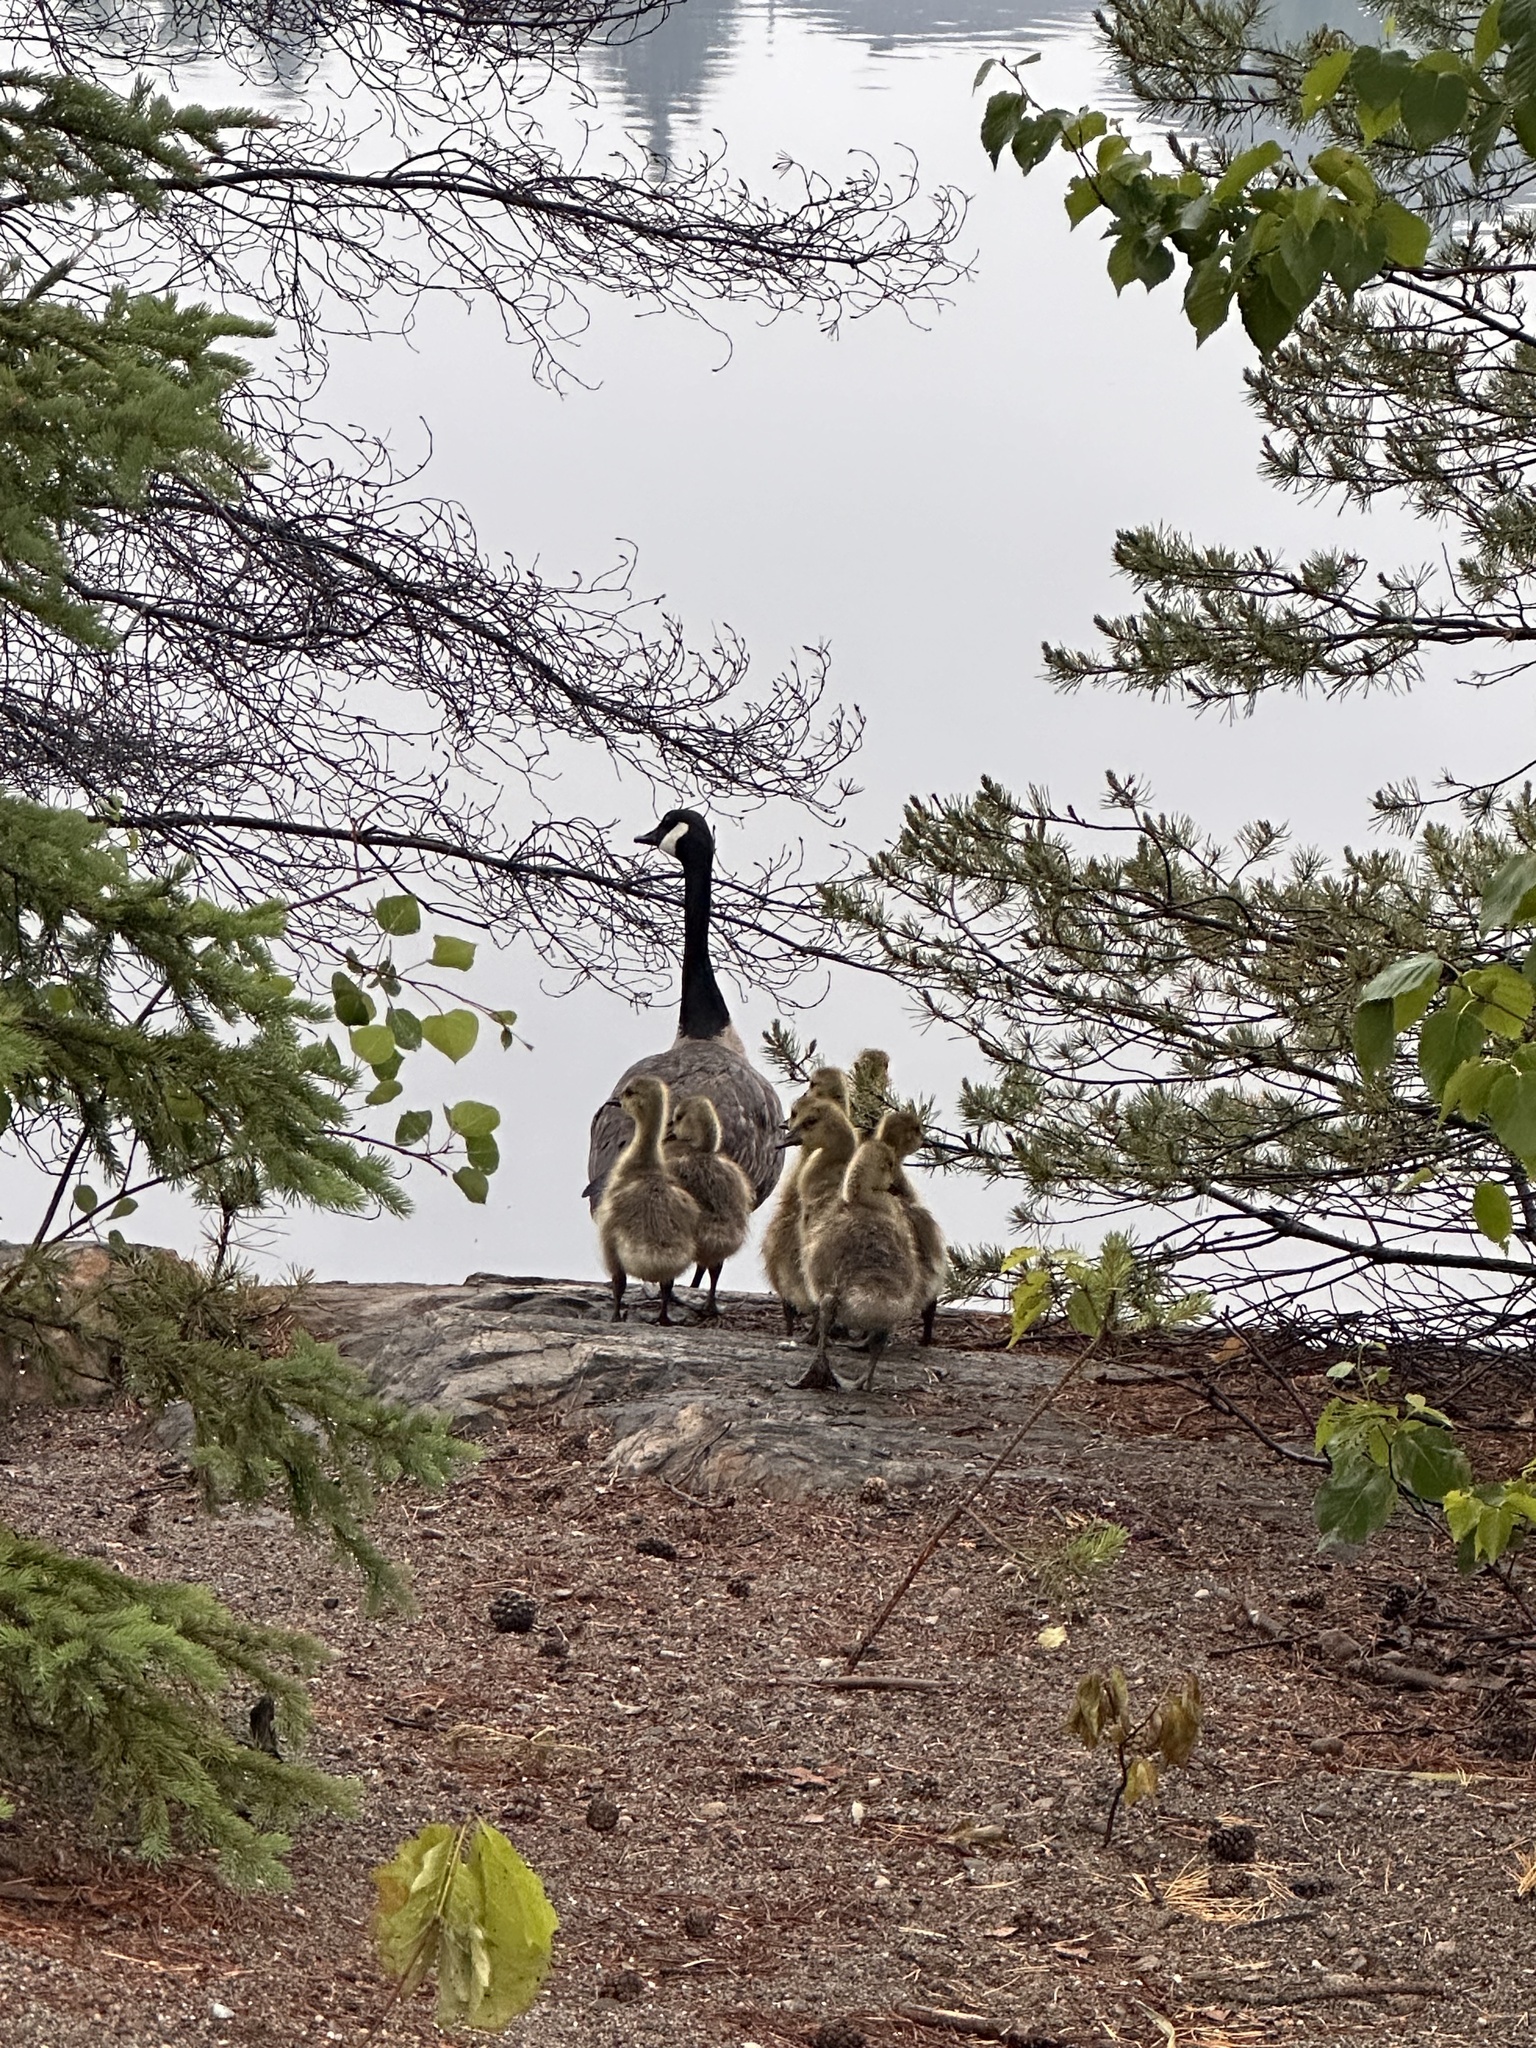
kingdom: Animalia
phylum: Chordata
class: Aves
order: Anseriformes
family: Anatidae
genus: Branta
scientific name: Branta canadensis
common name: Canada goose
